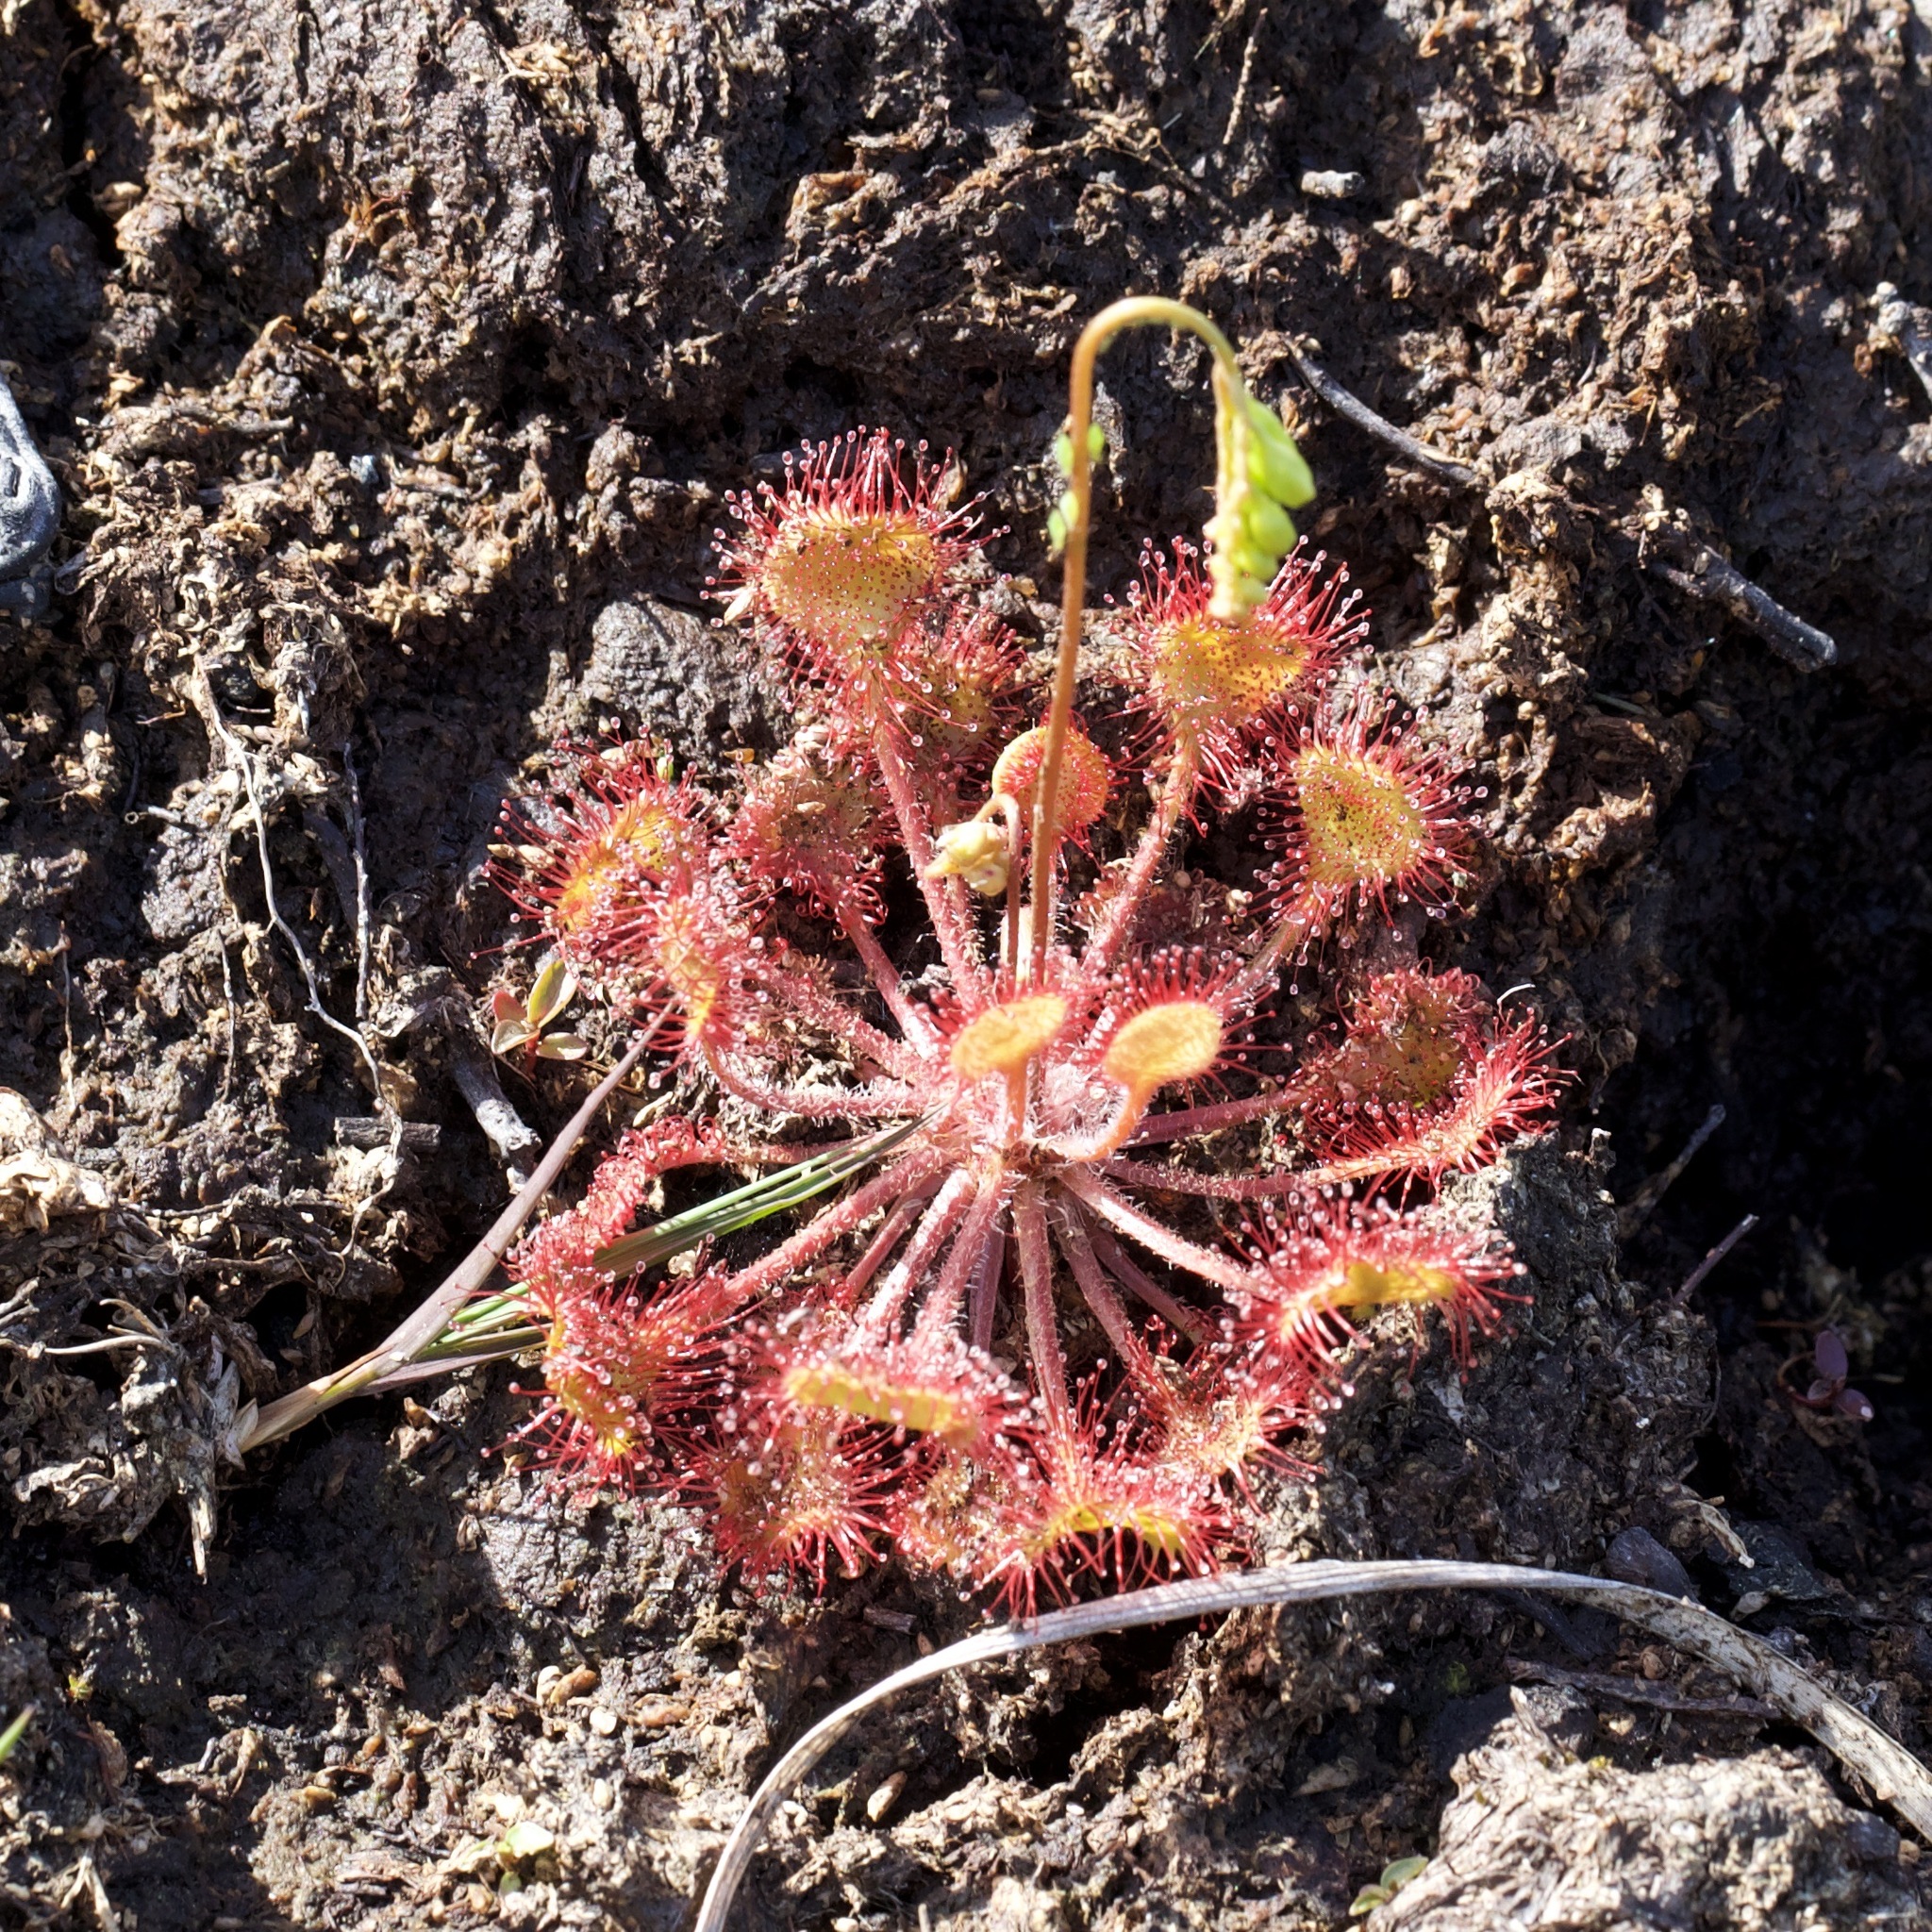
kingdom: Plantae
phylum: Tracheophyta
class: Magnoliopsida
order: Caryophyllales
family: Droseraceae
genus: Drosera
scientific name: Drosera rotundifolia
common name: Round-leaved sundew
